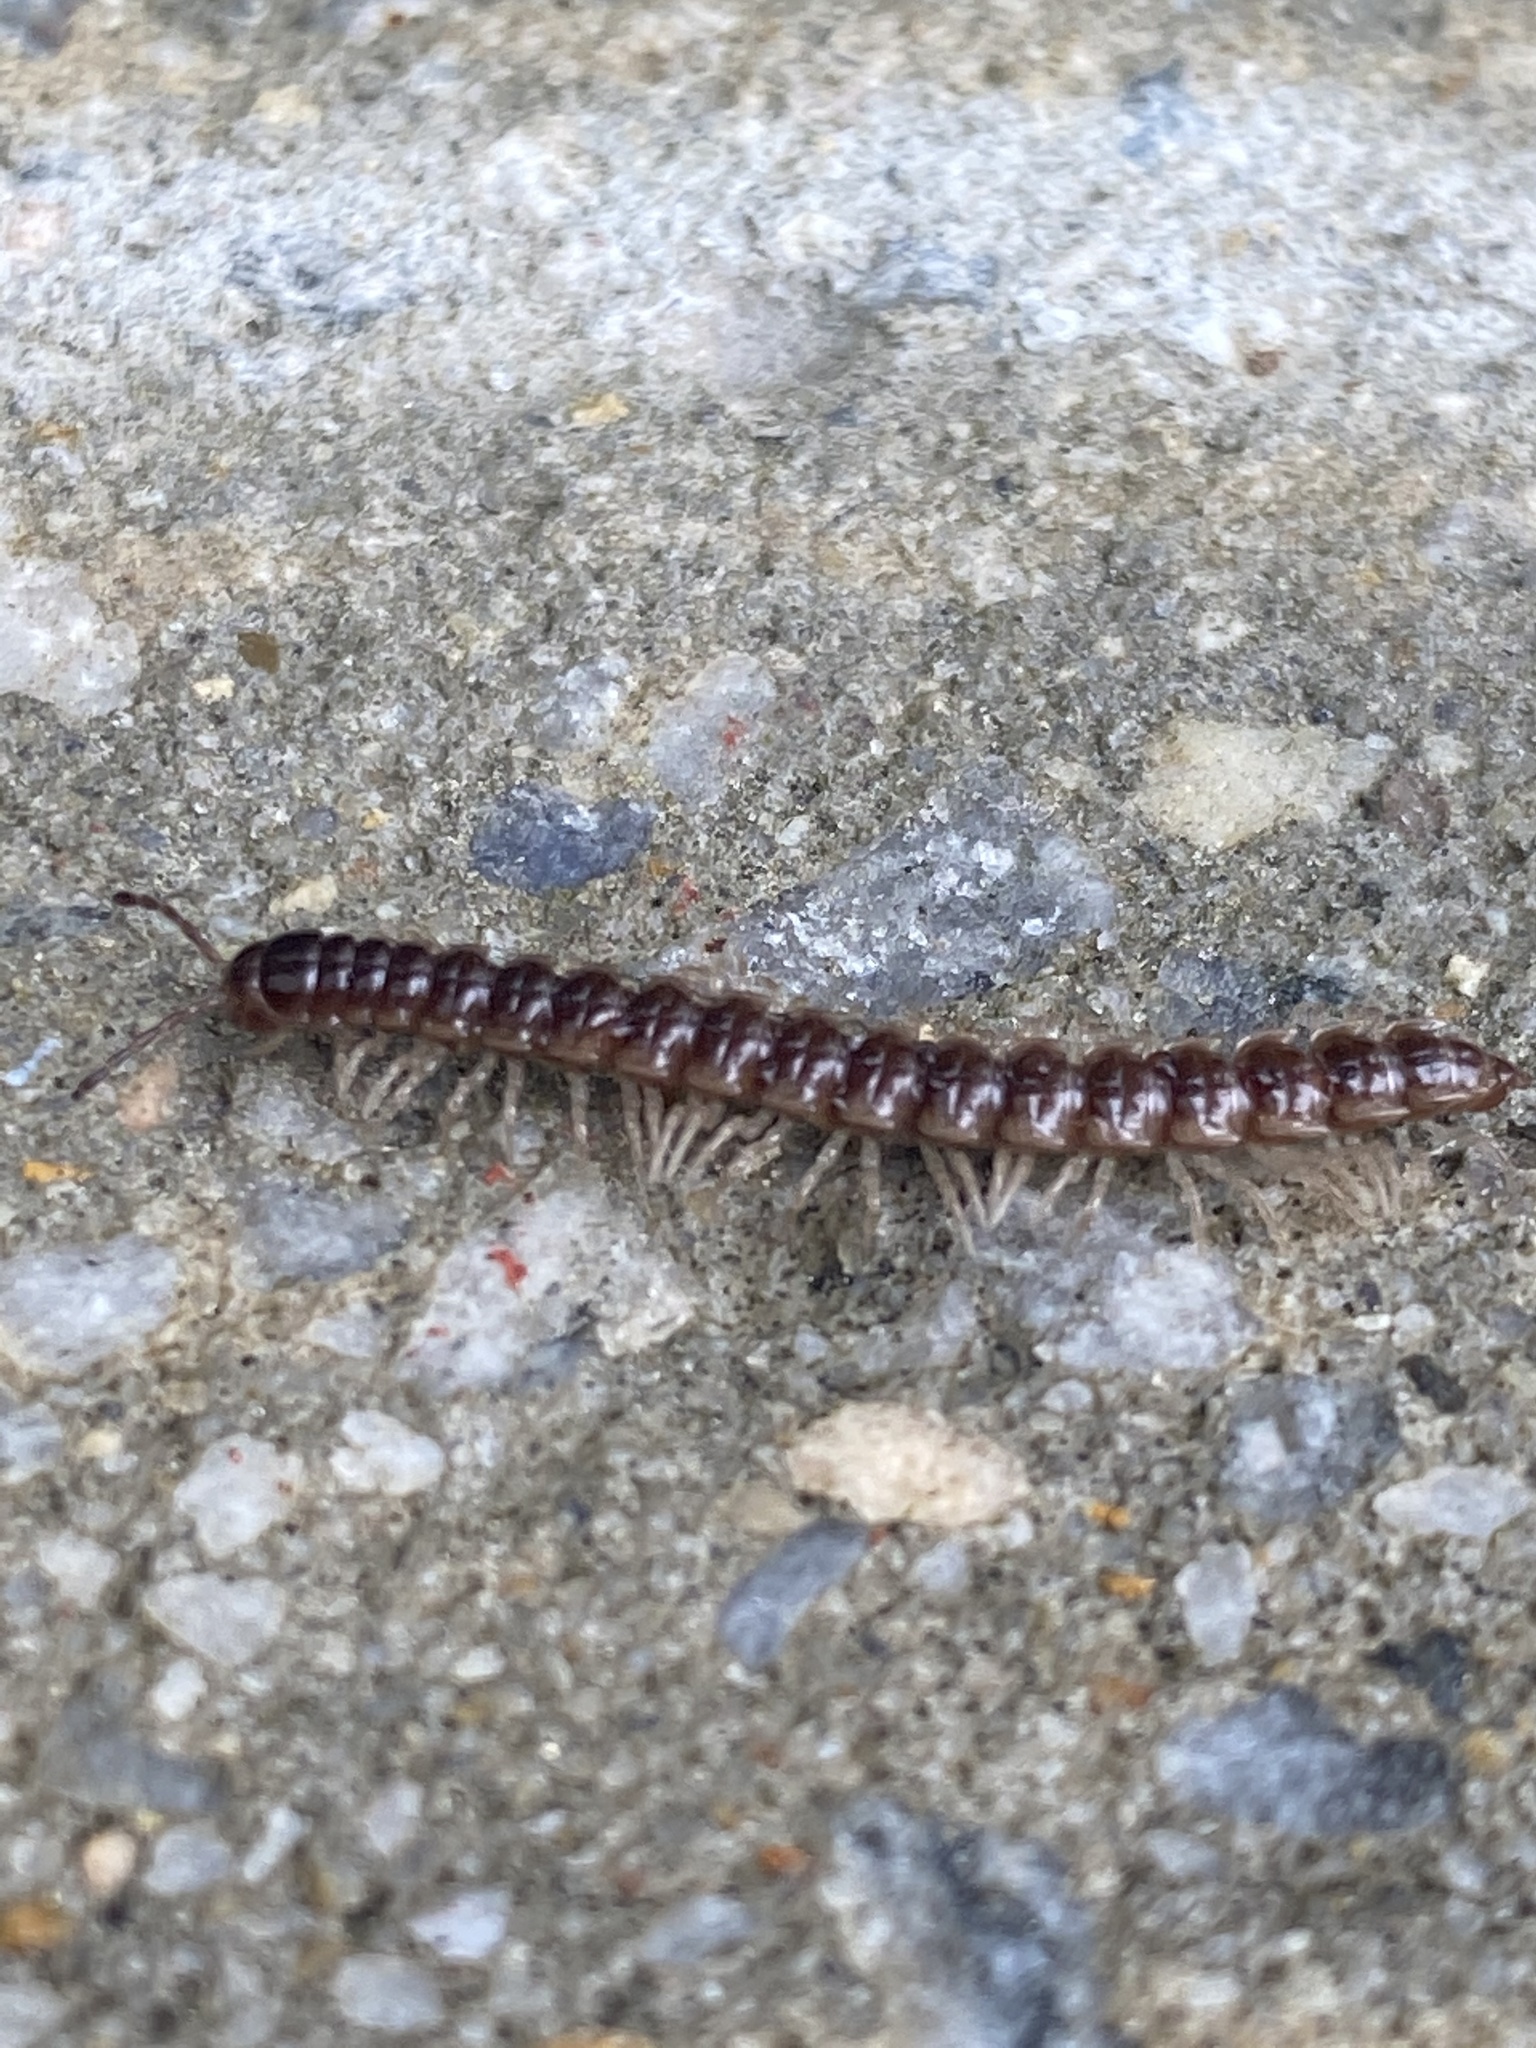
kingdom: Animalia
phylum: Arthropoda
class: Diplopoda
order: Polydesmida
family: Paradoxosomatidae
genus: Oxidus
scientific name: Oxidus gracilis
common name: Greenhouse millipede
